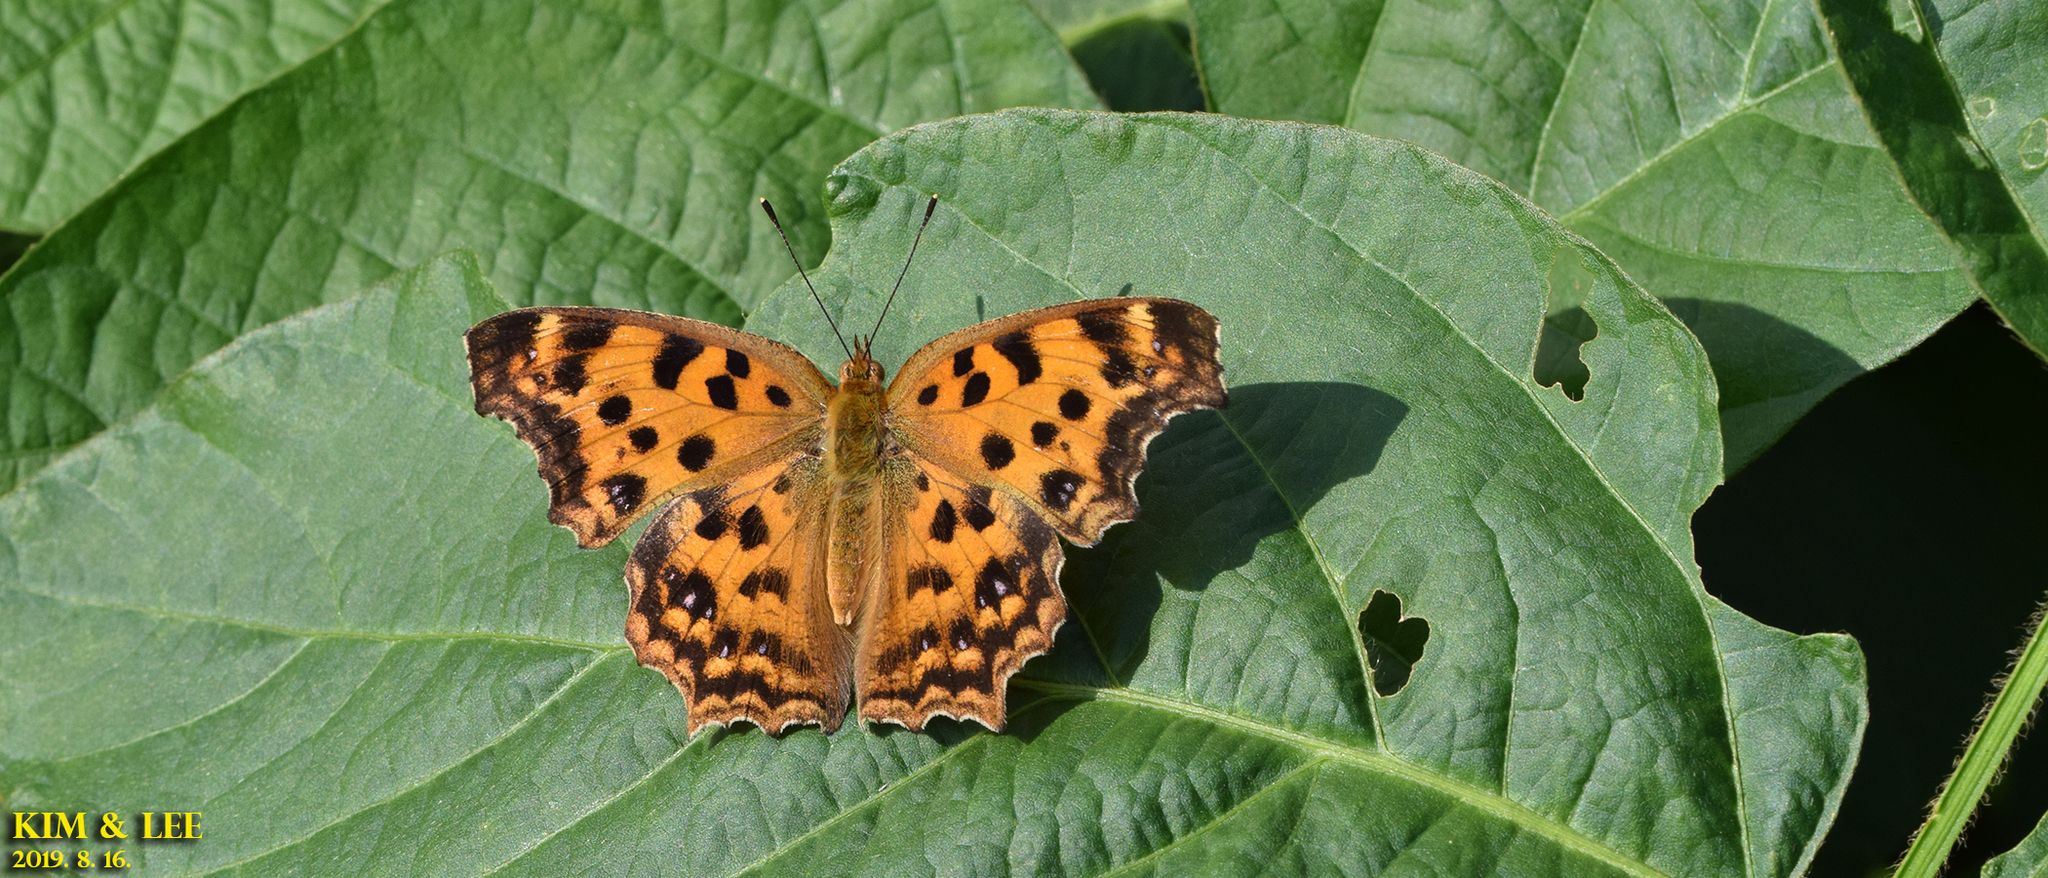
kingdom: Animalia
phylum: Arthropoda
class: Insecta
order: Lepidoptera
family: Nymphalidae
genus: Polygonia
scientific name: Polygonia c-aureum
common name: Asian comma
